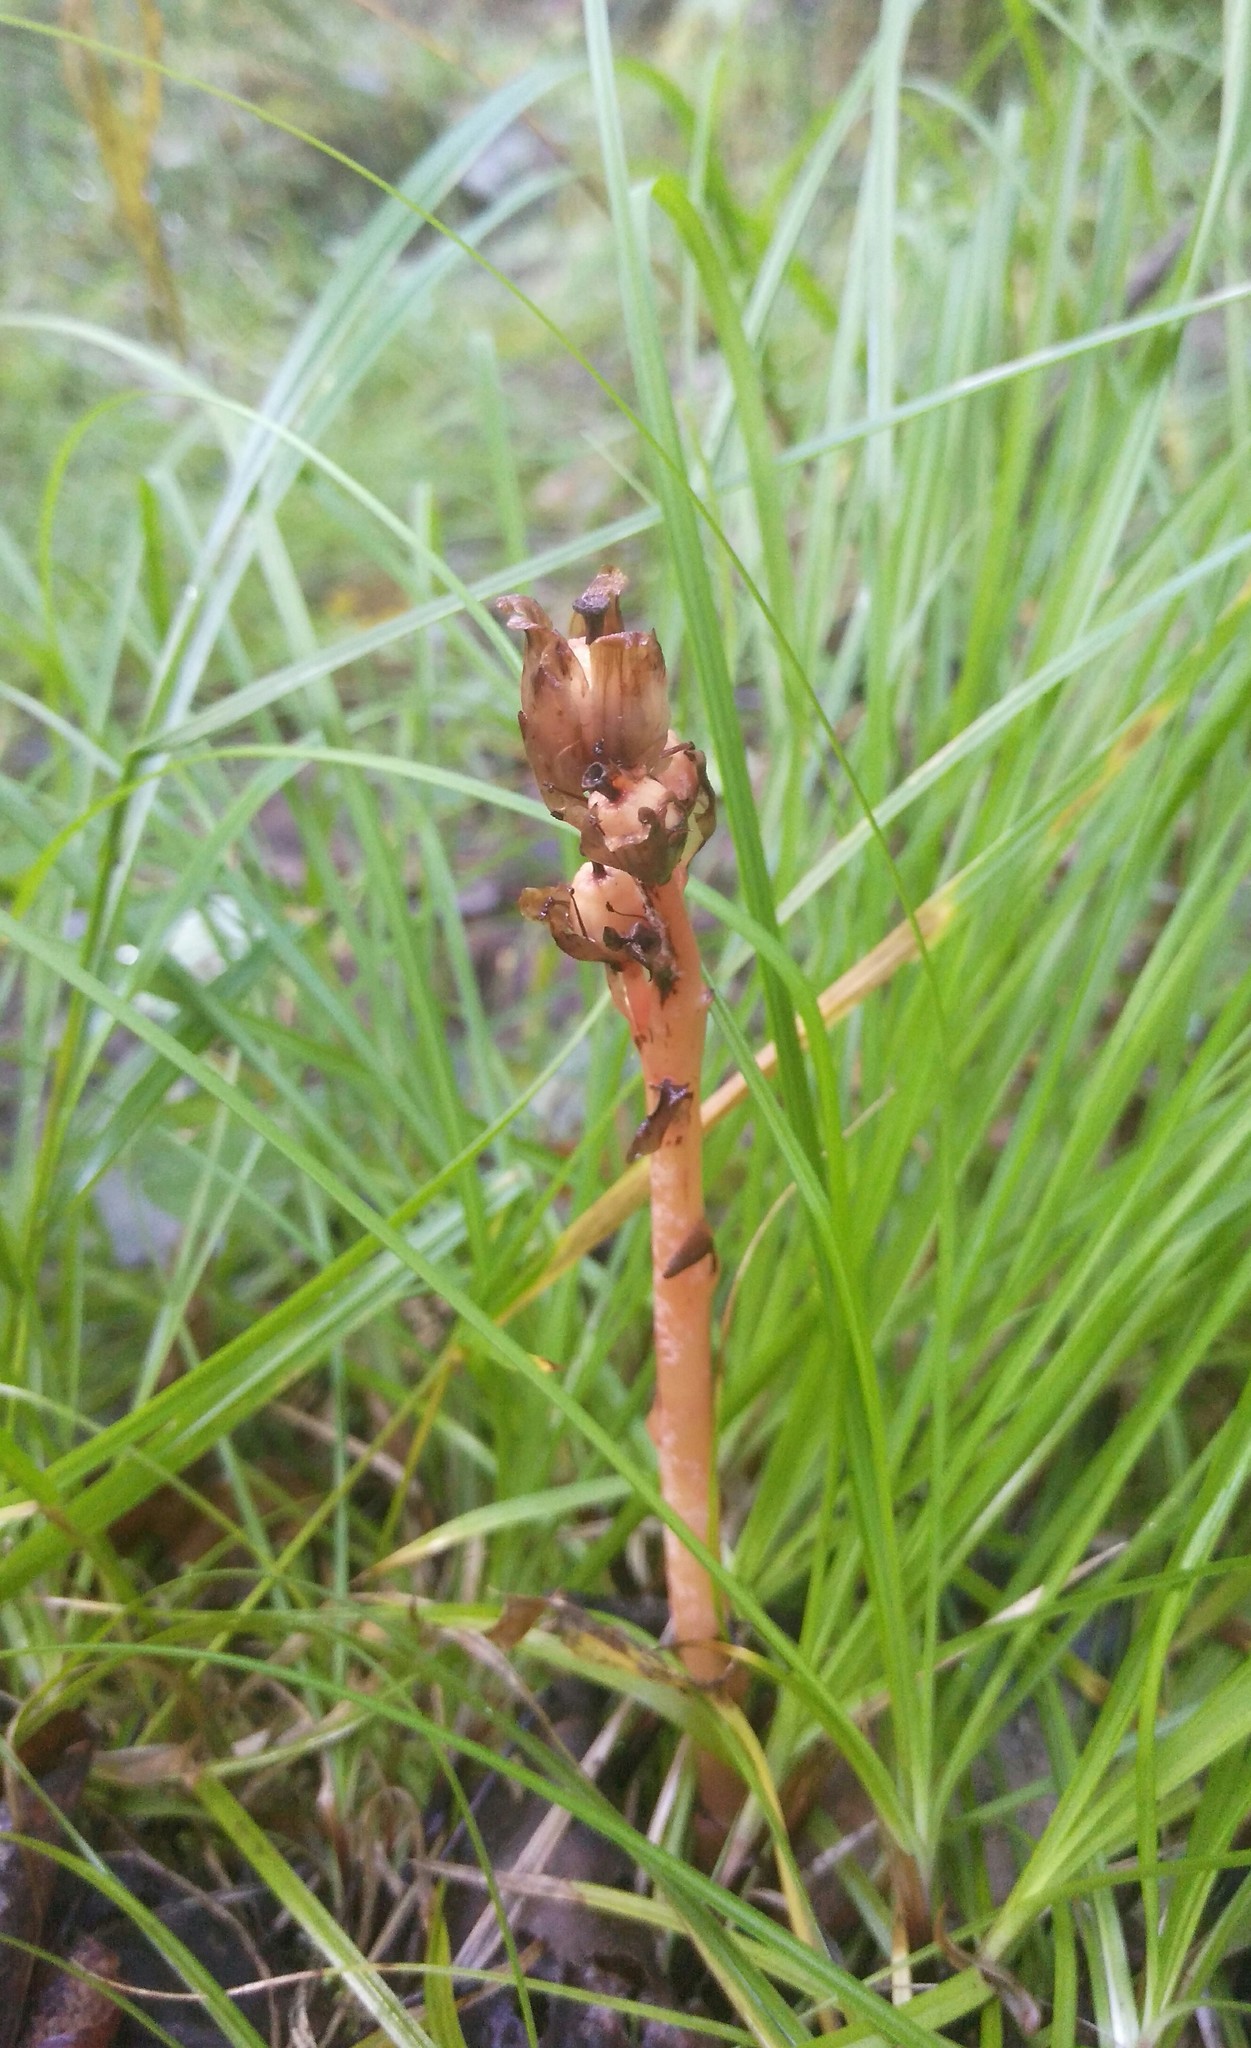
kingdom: Plantae
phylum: Tracheophyta
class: Magnoliopsida
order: Ericales
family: Ericaceae
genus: Hypopitys
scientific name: Hypopitys monotropa
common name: Yellow bird's-nest
